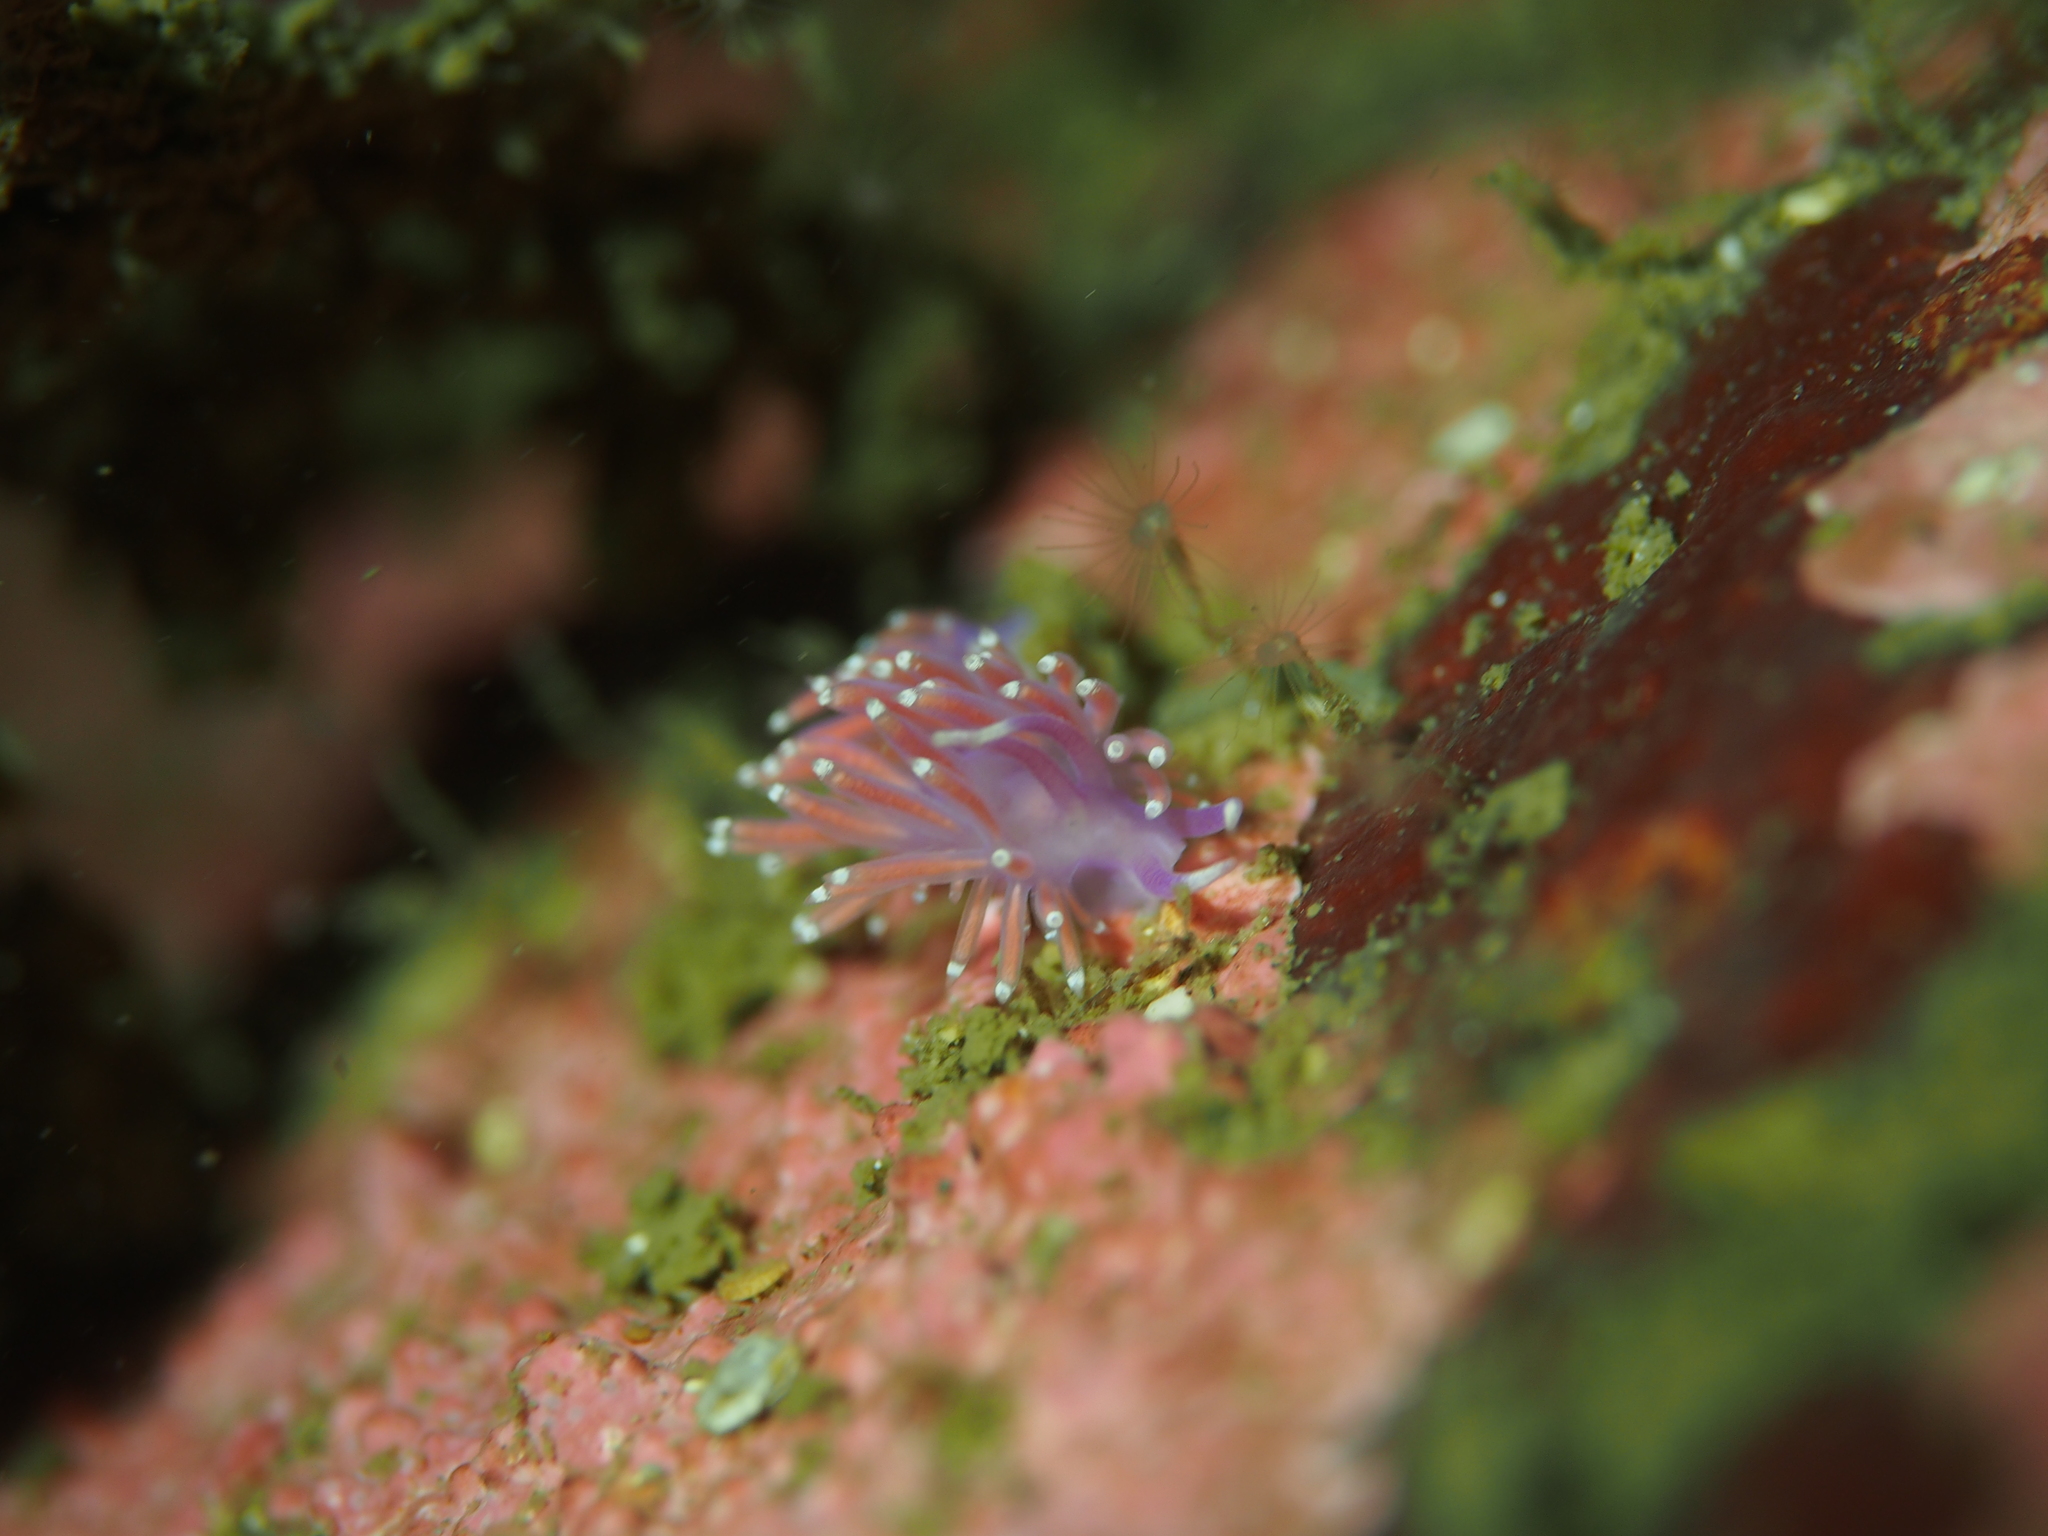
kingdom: Animalia
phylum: Mollusca
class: Gastropoda
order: Nudibranchia
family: Flabellinidae
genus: Edmundsella
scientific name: Edmundsella pedata
